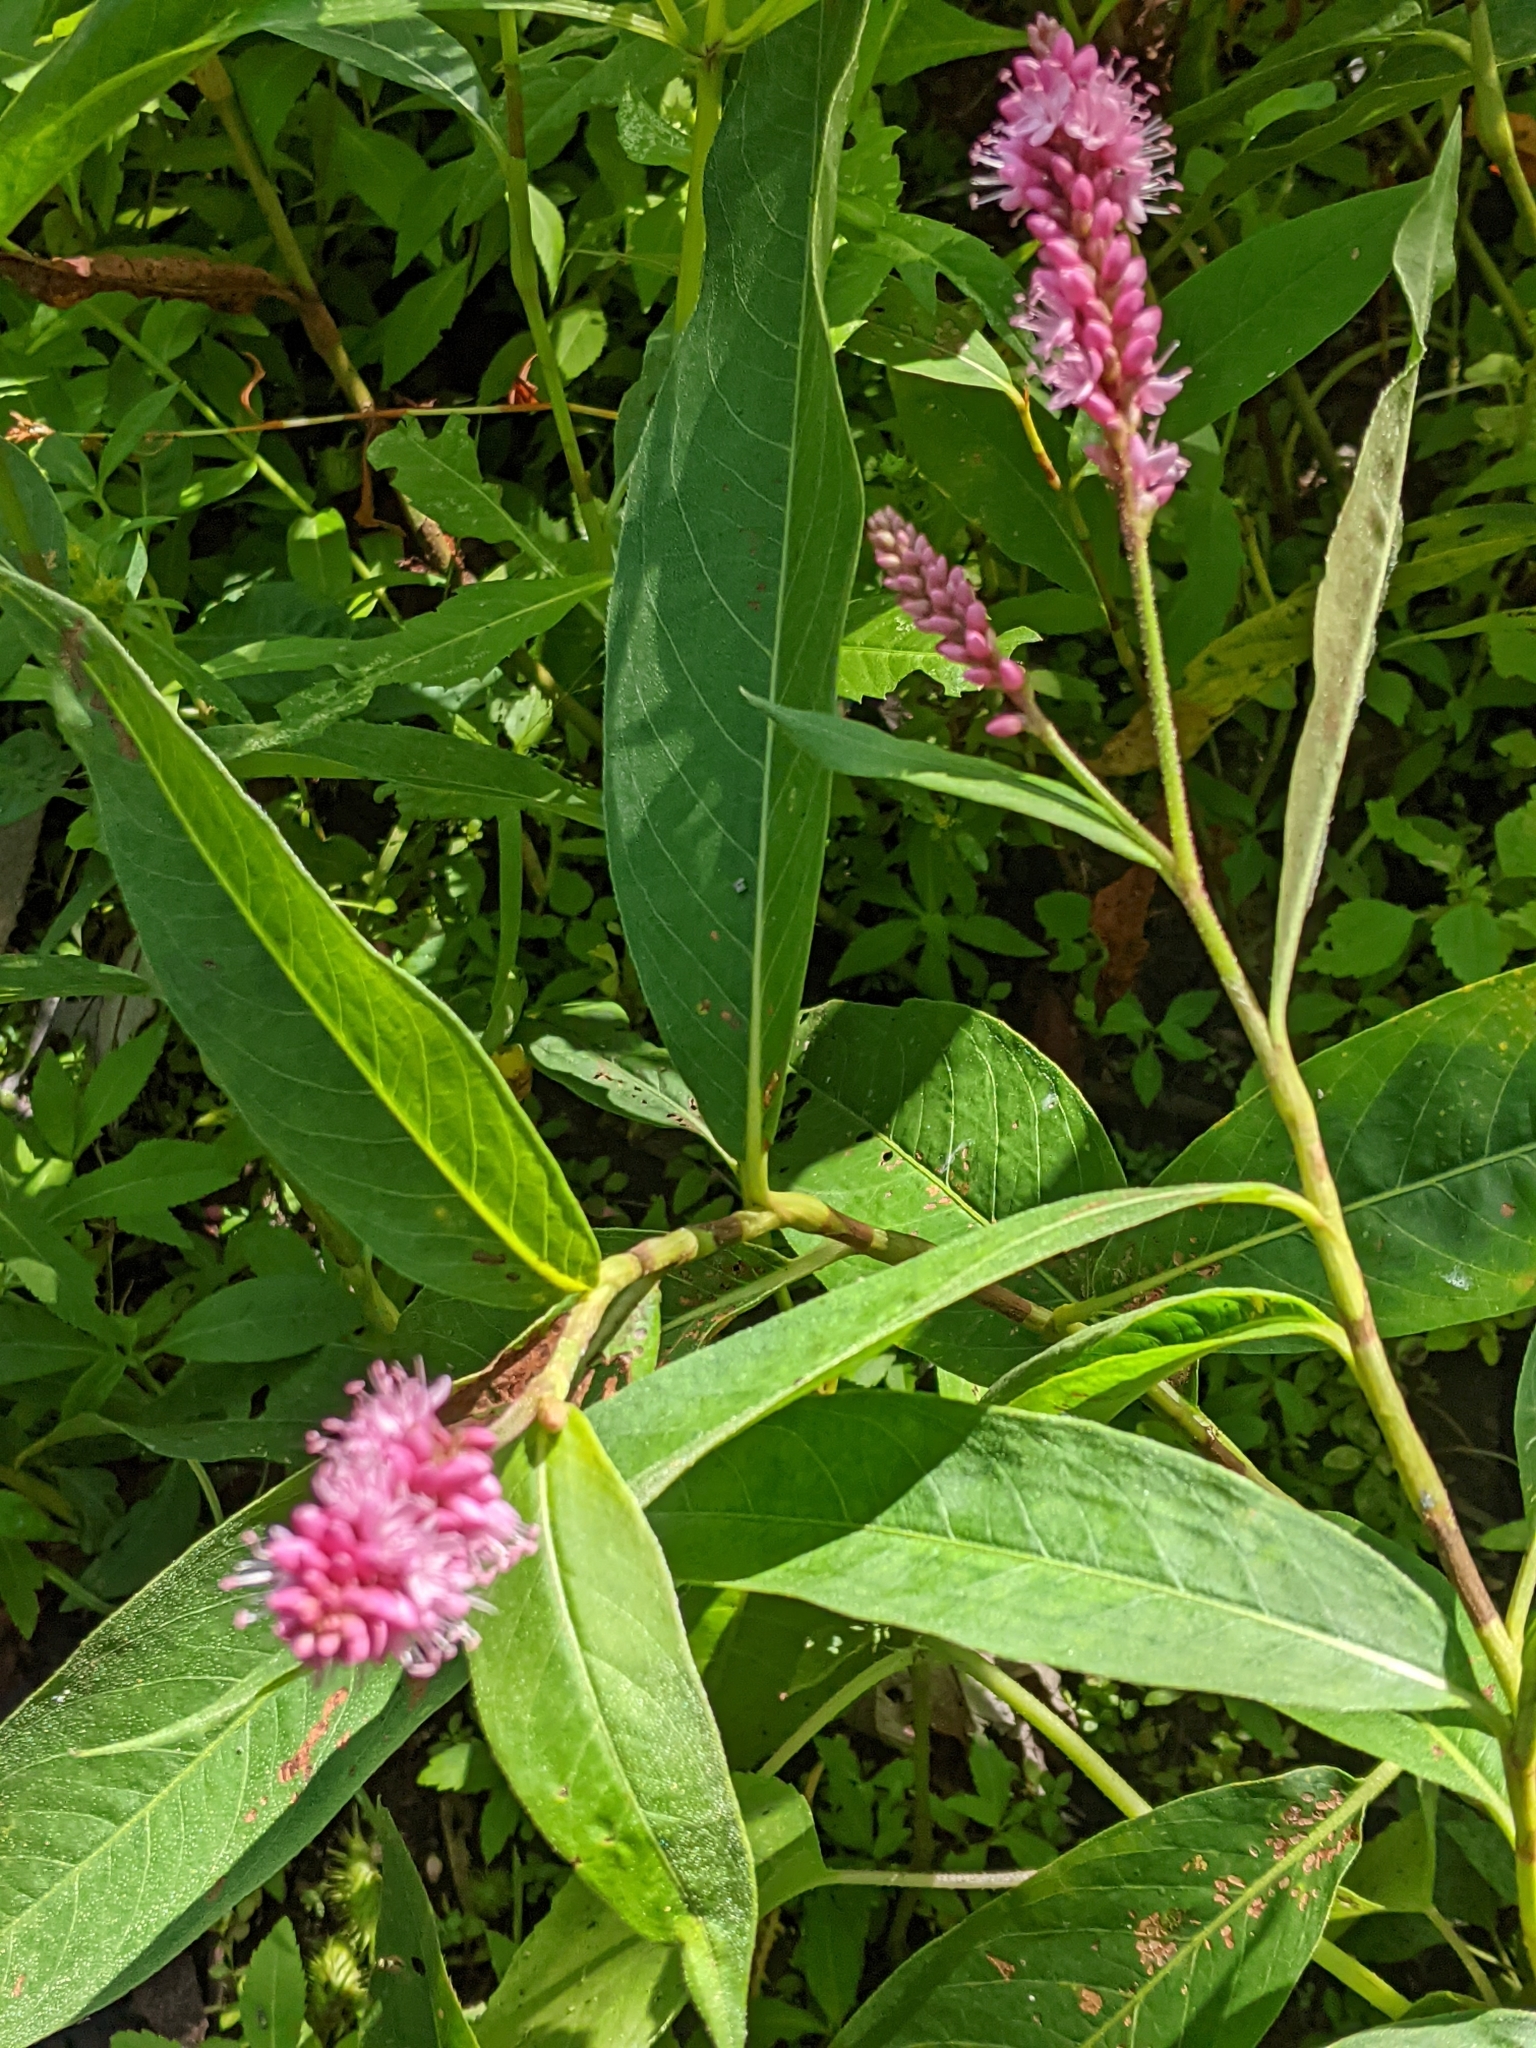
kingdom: Plantae
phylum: Tracheophyta
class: Magnoliopsida
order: Caryophyllales
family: Polygonaceae
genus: Persicaria
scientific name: Persicaria amphibia
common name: Amphibious bistort
